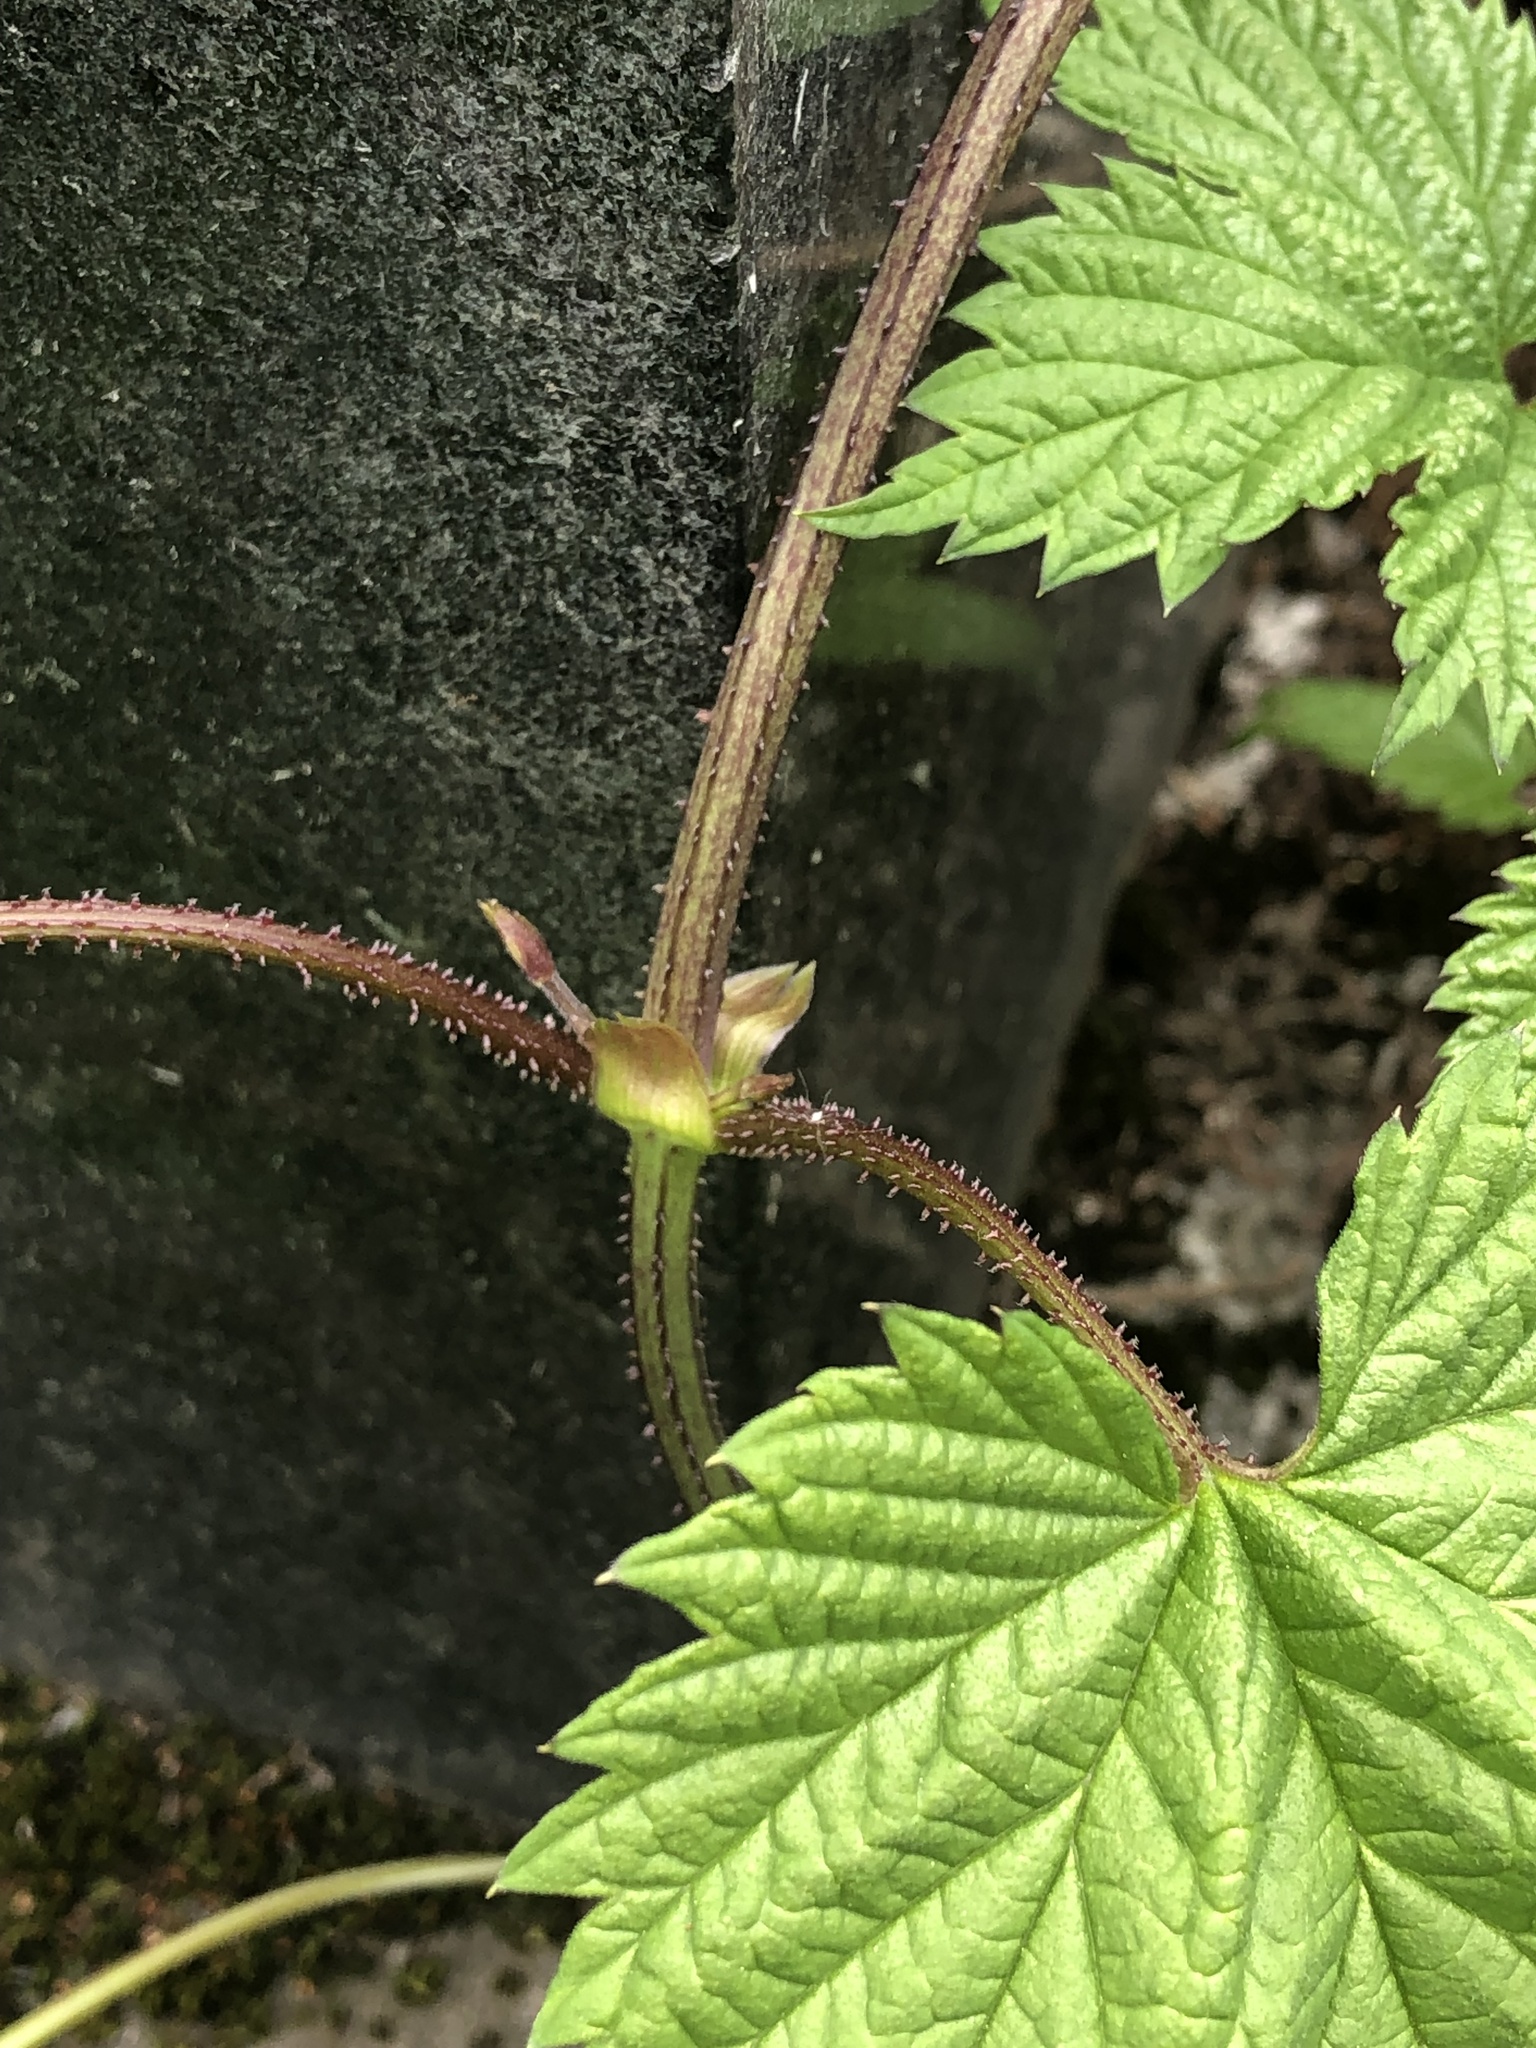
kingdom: Plantae
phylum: Tracheophyta
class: Magnoliopsida
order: Rosales
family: Cannabaceae
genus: Humulus
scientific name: Humulus lupulus
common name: Hop
